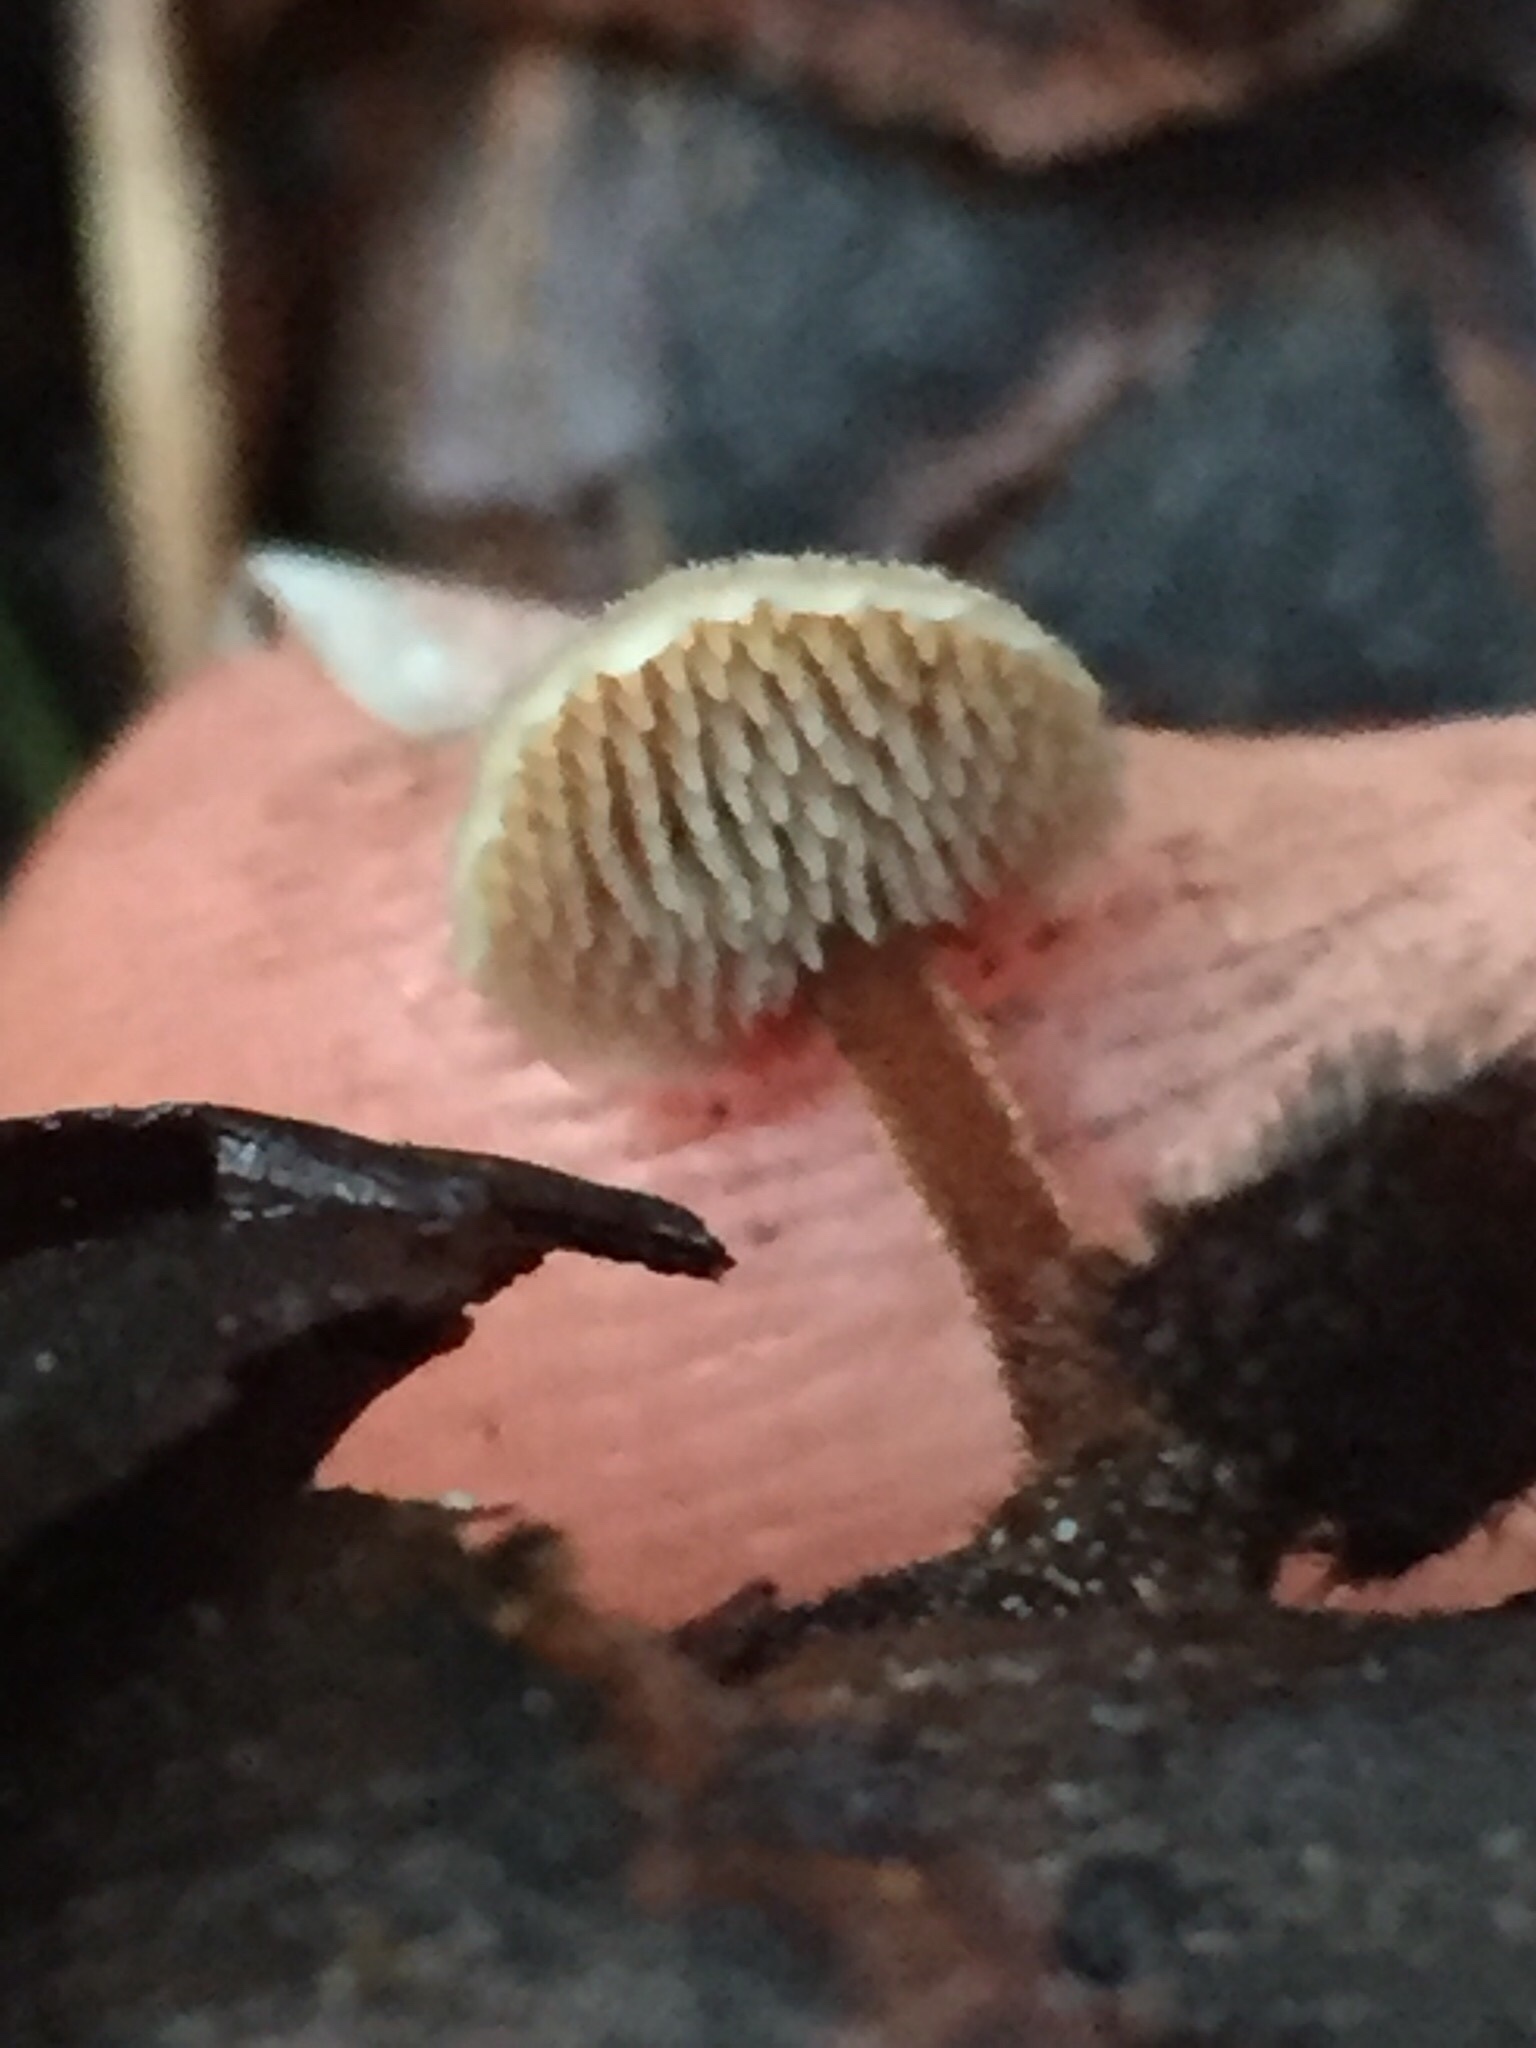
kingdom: Fungi
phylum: Basidiomycota
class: Agaricomycetes
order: Russulales
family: Auriscalpiaceae
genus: Auriscalpium
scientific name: Auriscalpium vulgare
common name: Earpick fungus
